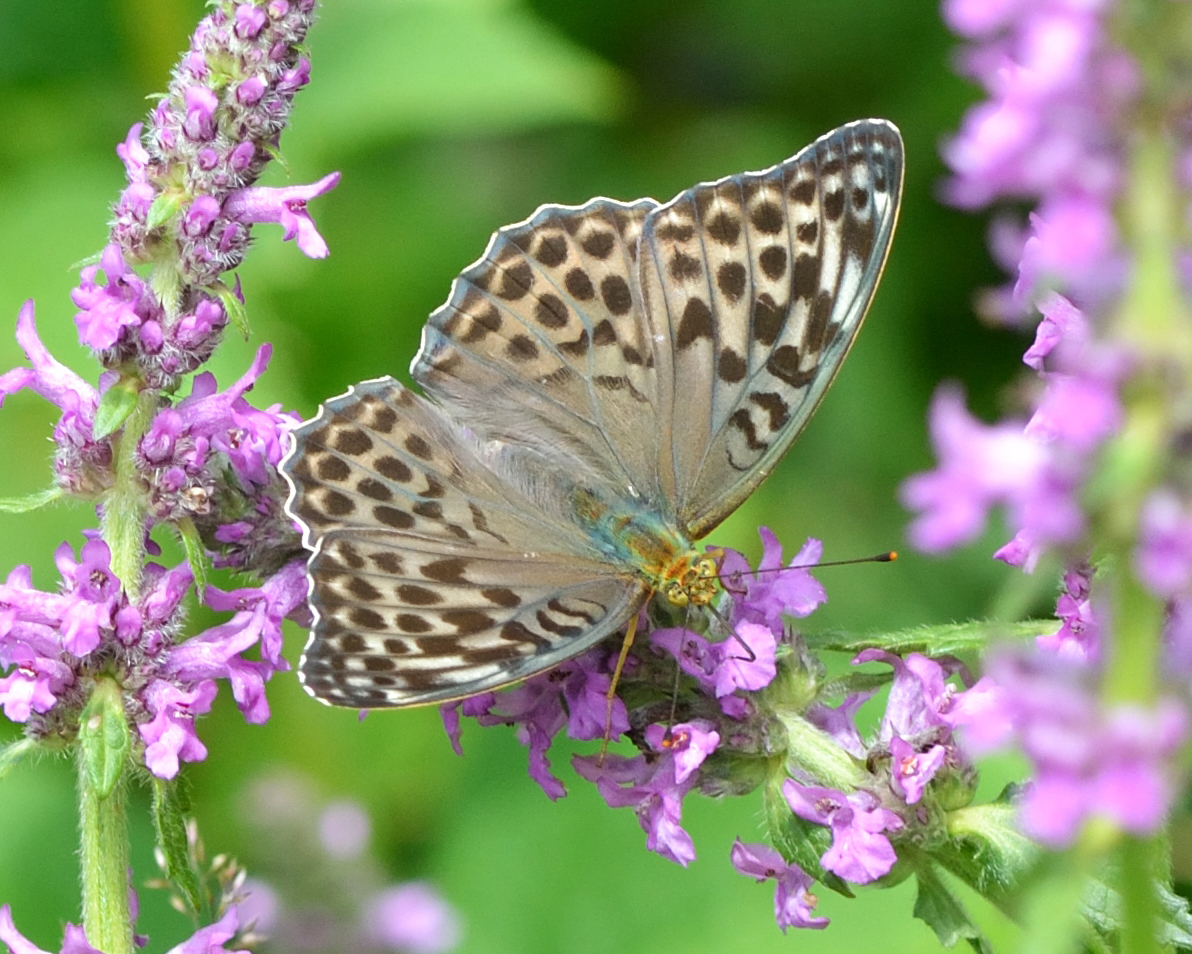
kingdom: Animalia
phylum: Arthropoda
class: Insecta
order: Lepidoptera
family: Nymphalidae
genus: Argynnis
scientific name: Argynnis paphia
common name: Silver-washed fritillary
